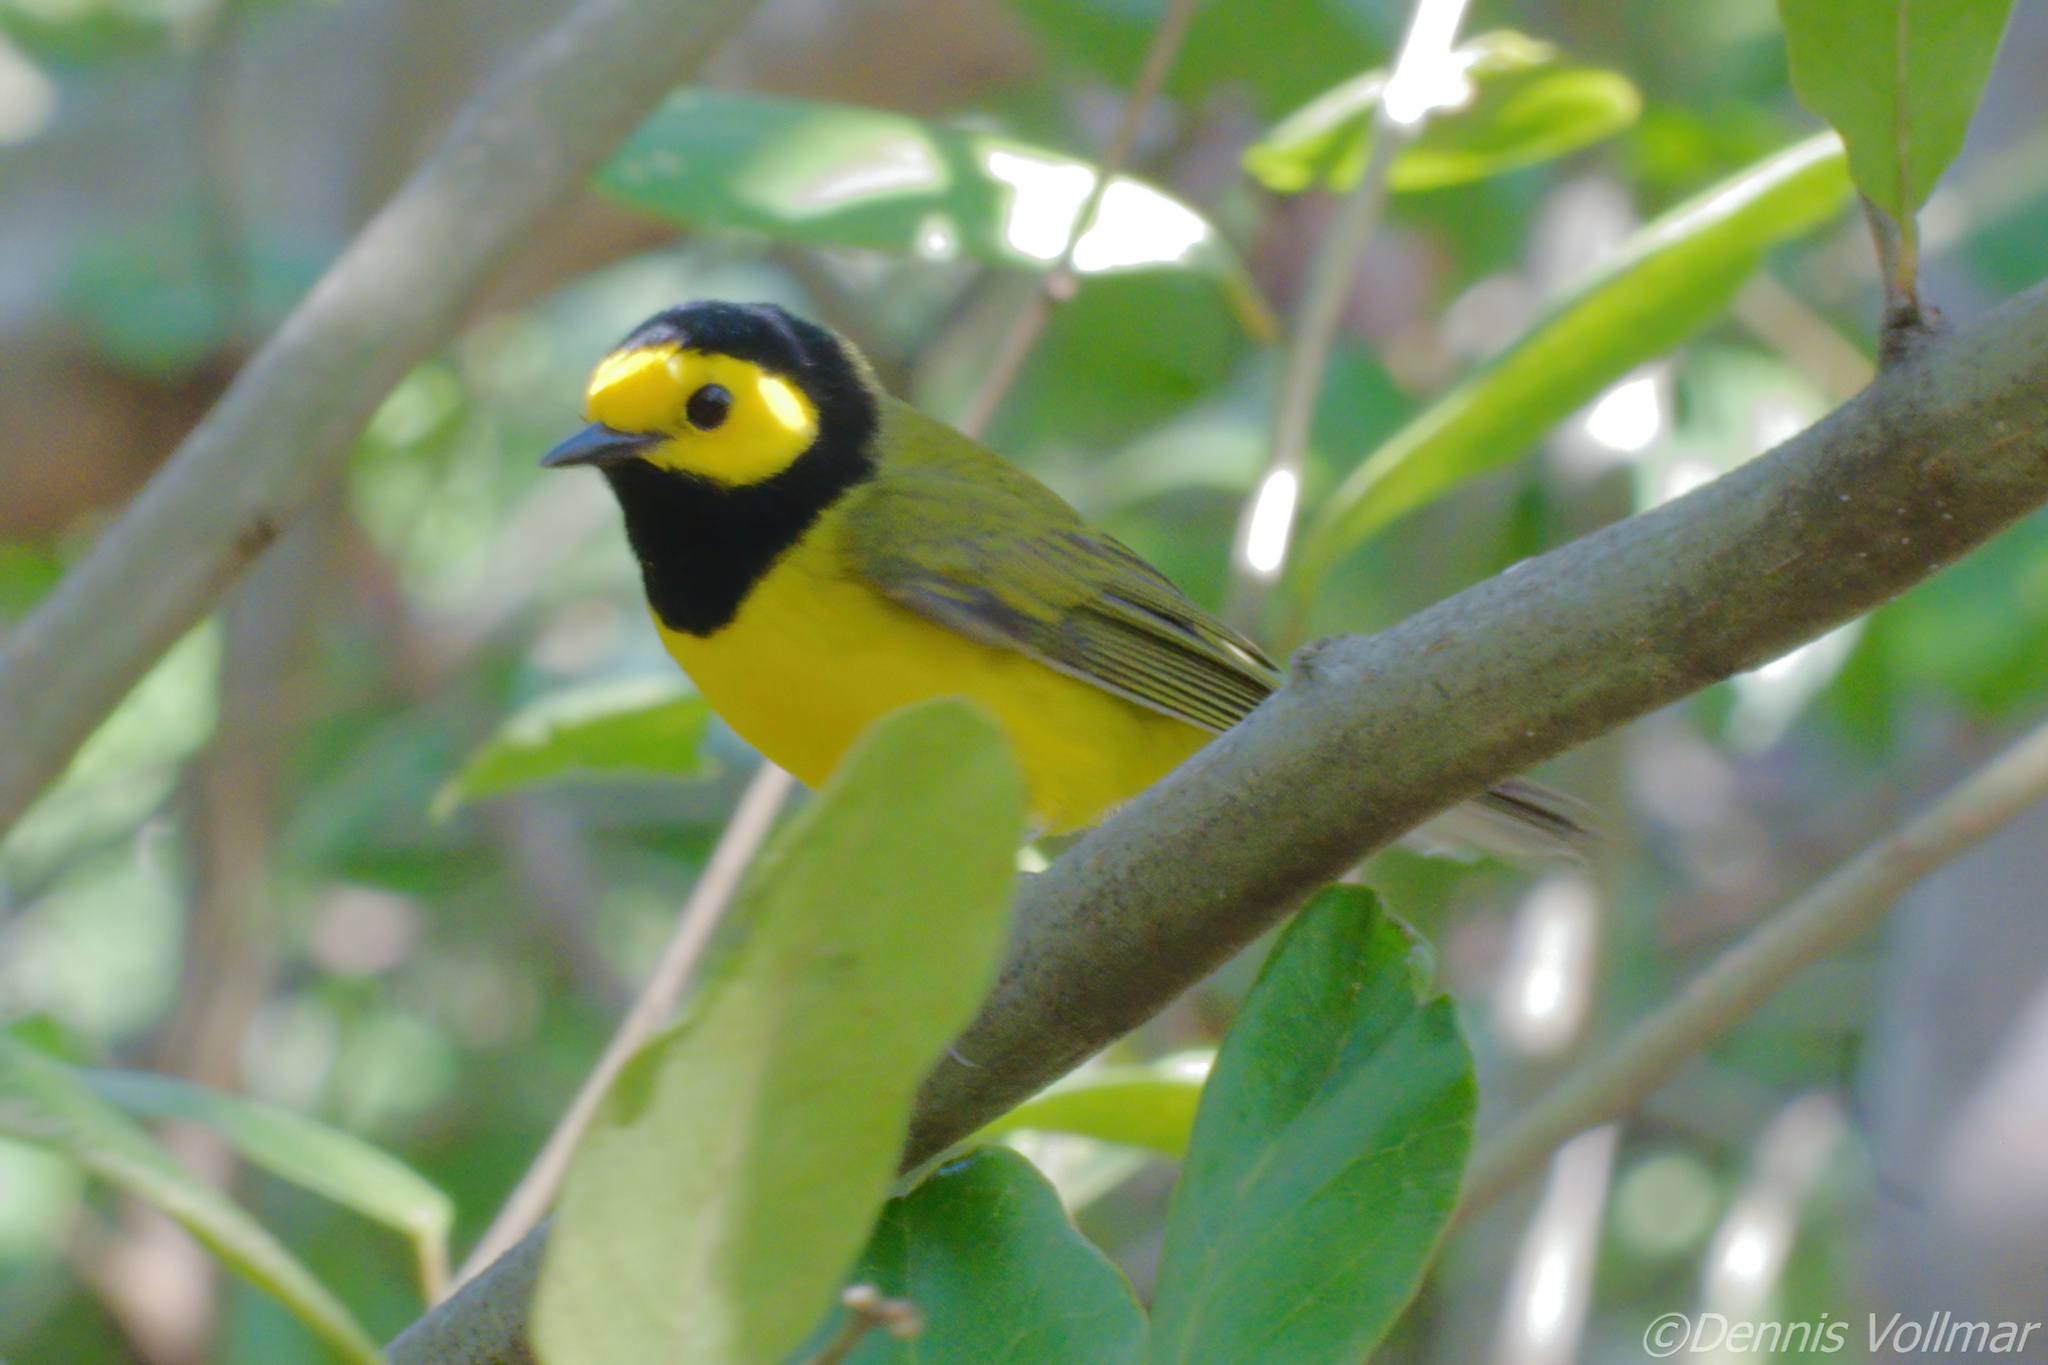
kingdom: Animalia
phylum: Chordata
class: Aves
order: Passeriformes
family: Parulidae
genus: Setophaga
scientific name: Setophaga citrina
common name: Hooded warbler
